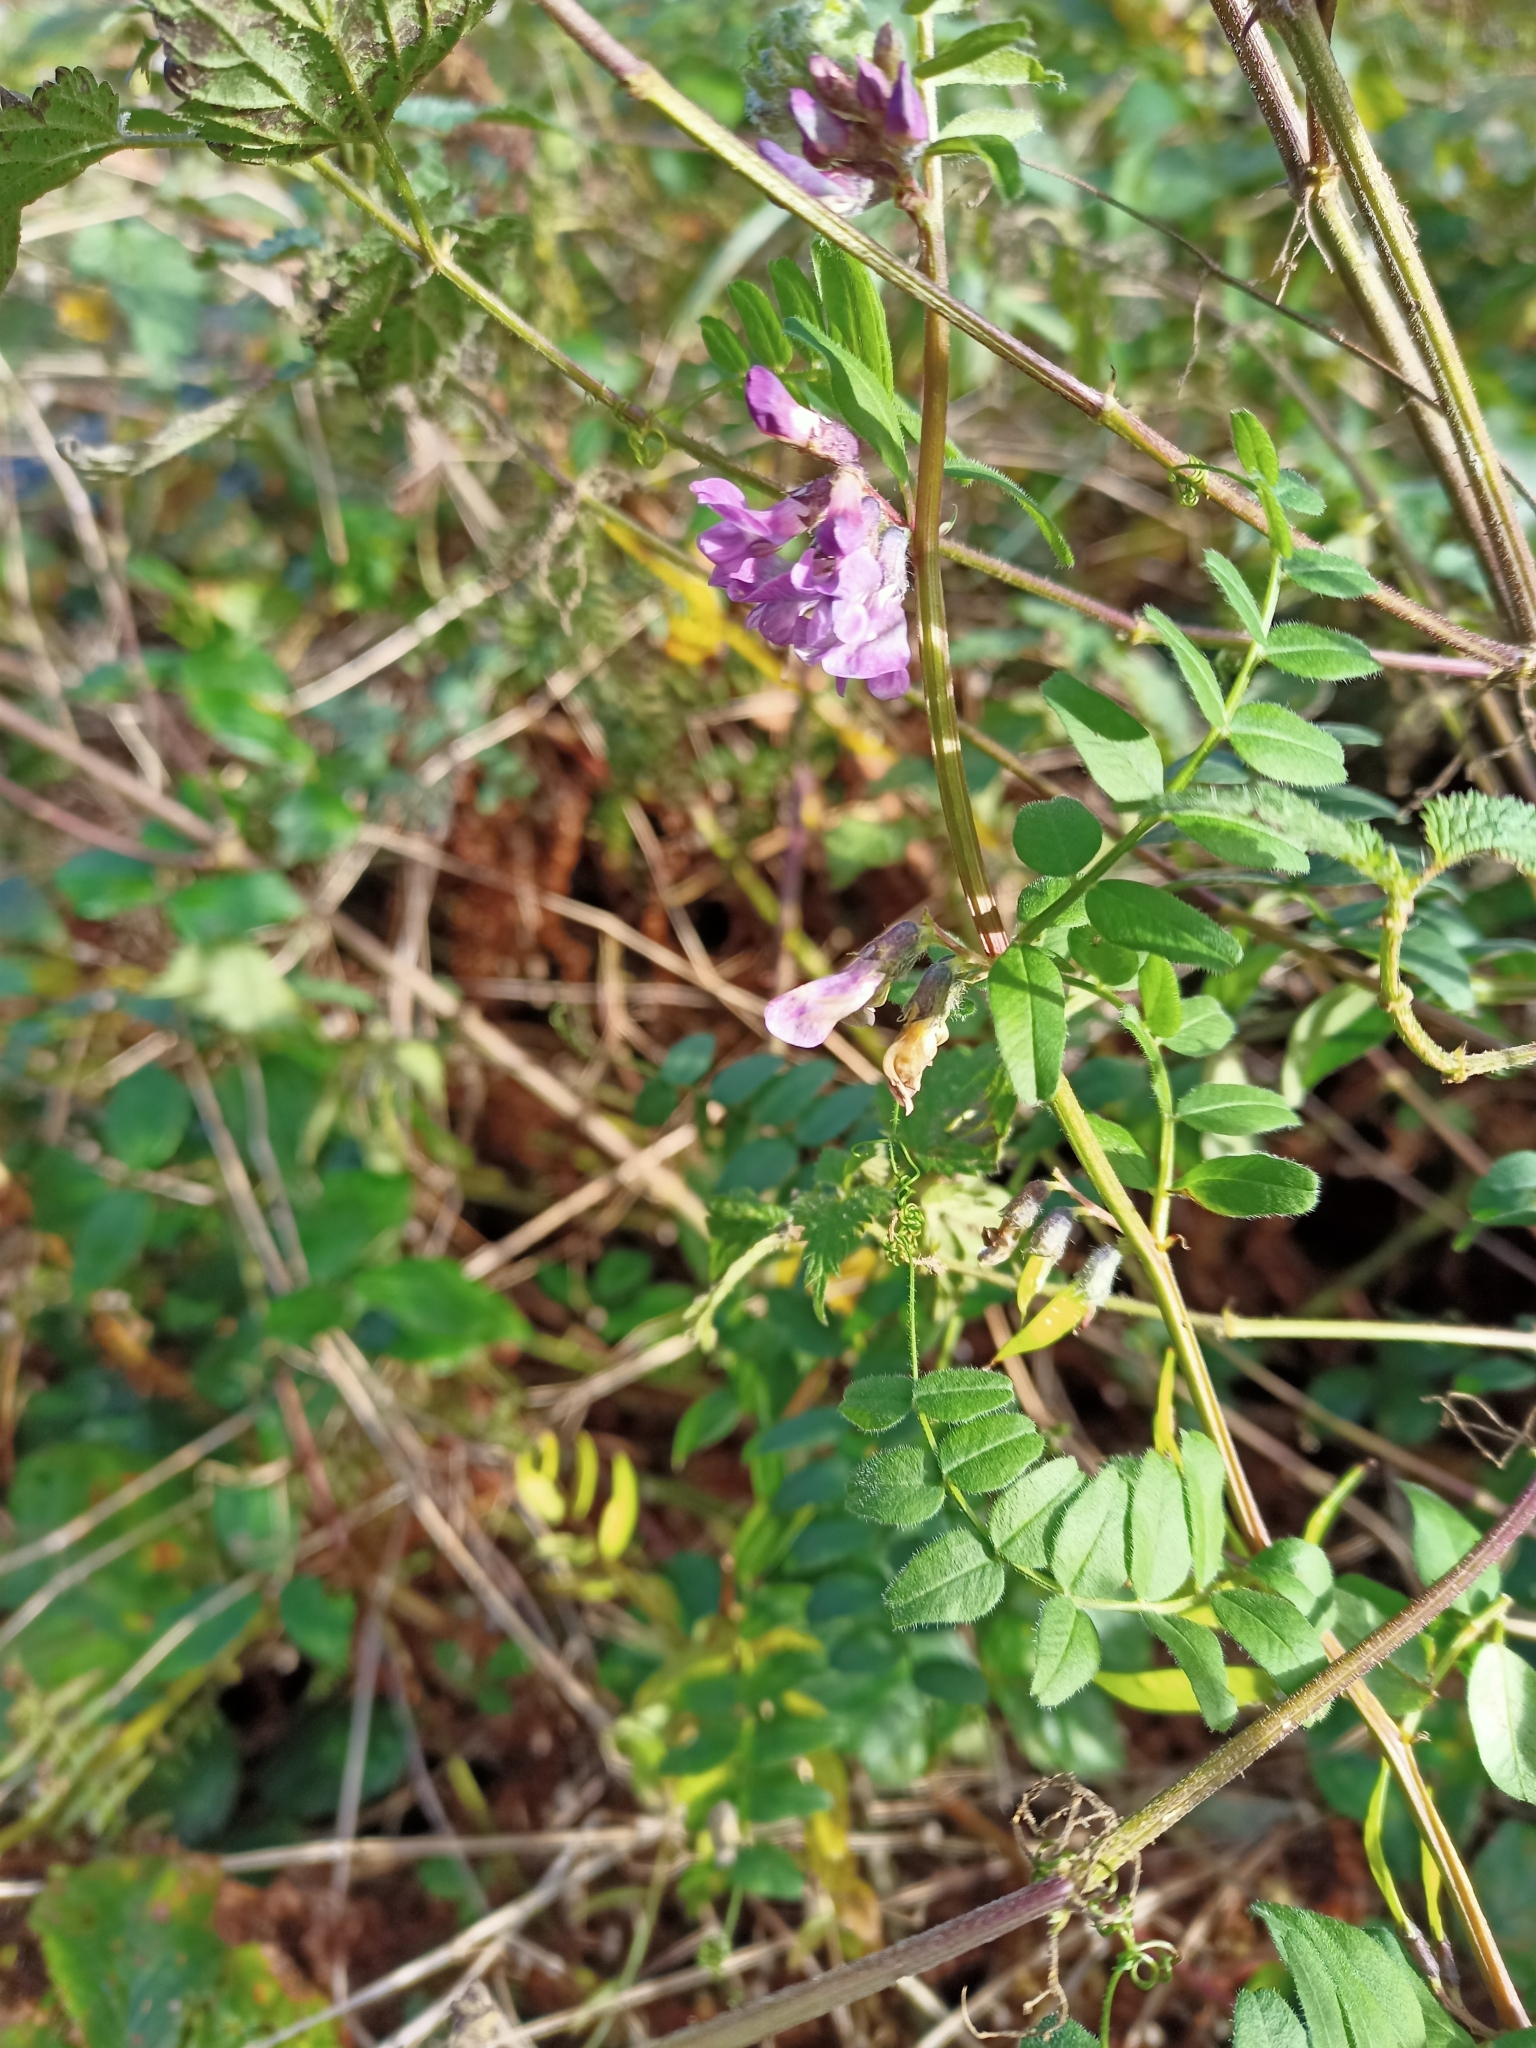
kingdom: Plantae
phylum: Tracheophyta
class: Magnoliopsida
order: Fabales
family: Fabaceae
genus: Vicia
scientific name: Vicia sepium
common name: Bush vetch
